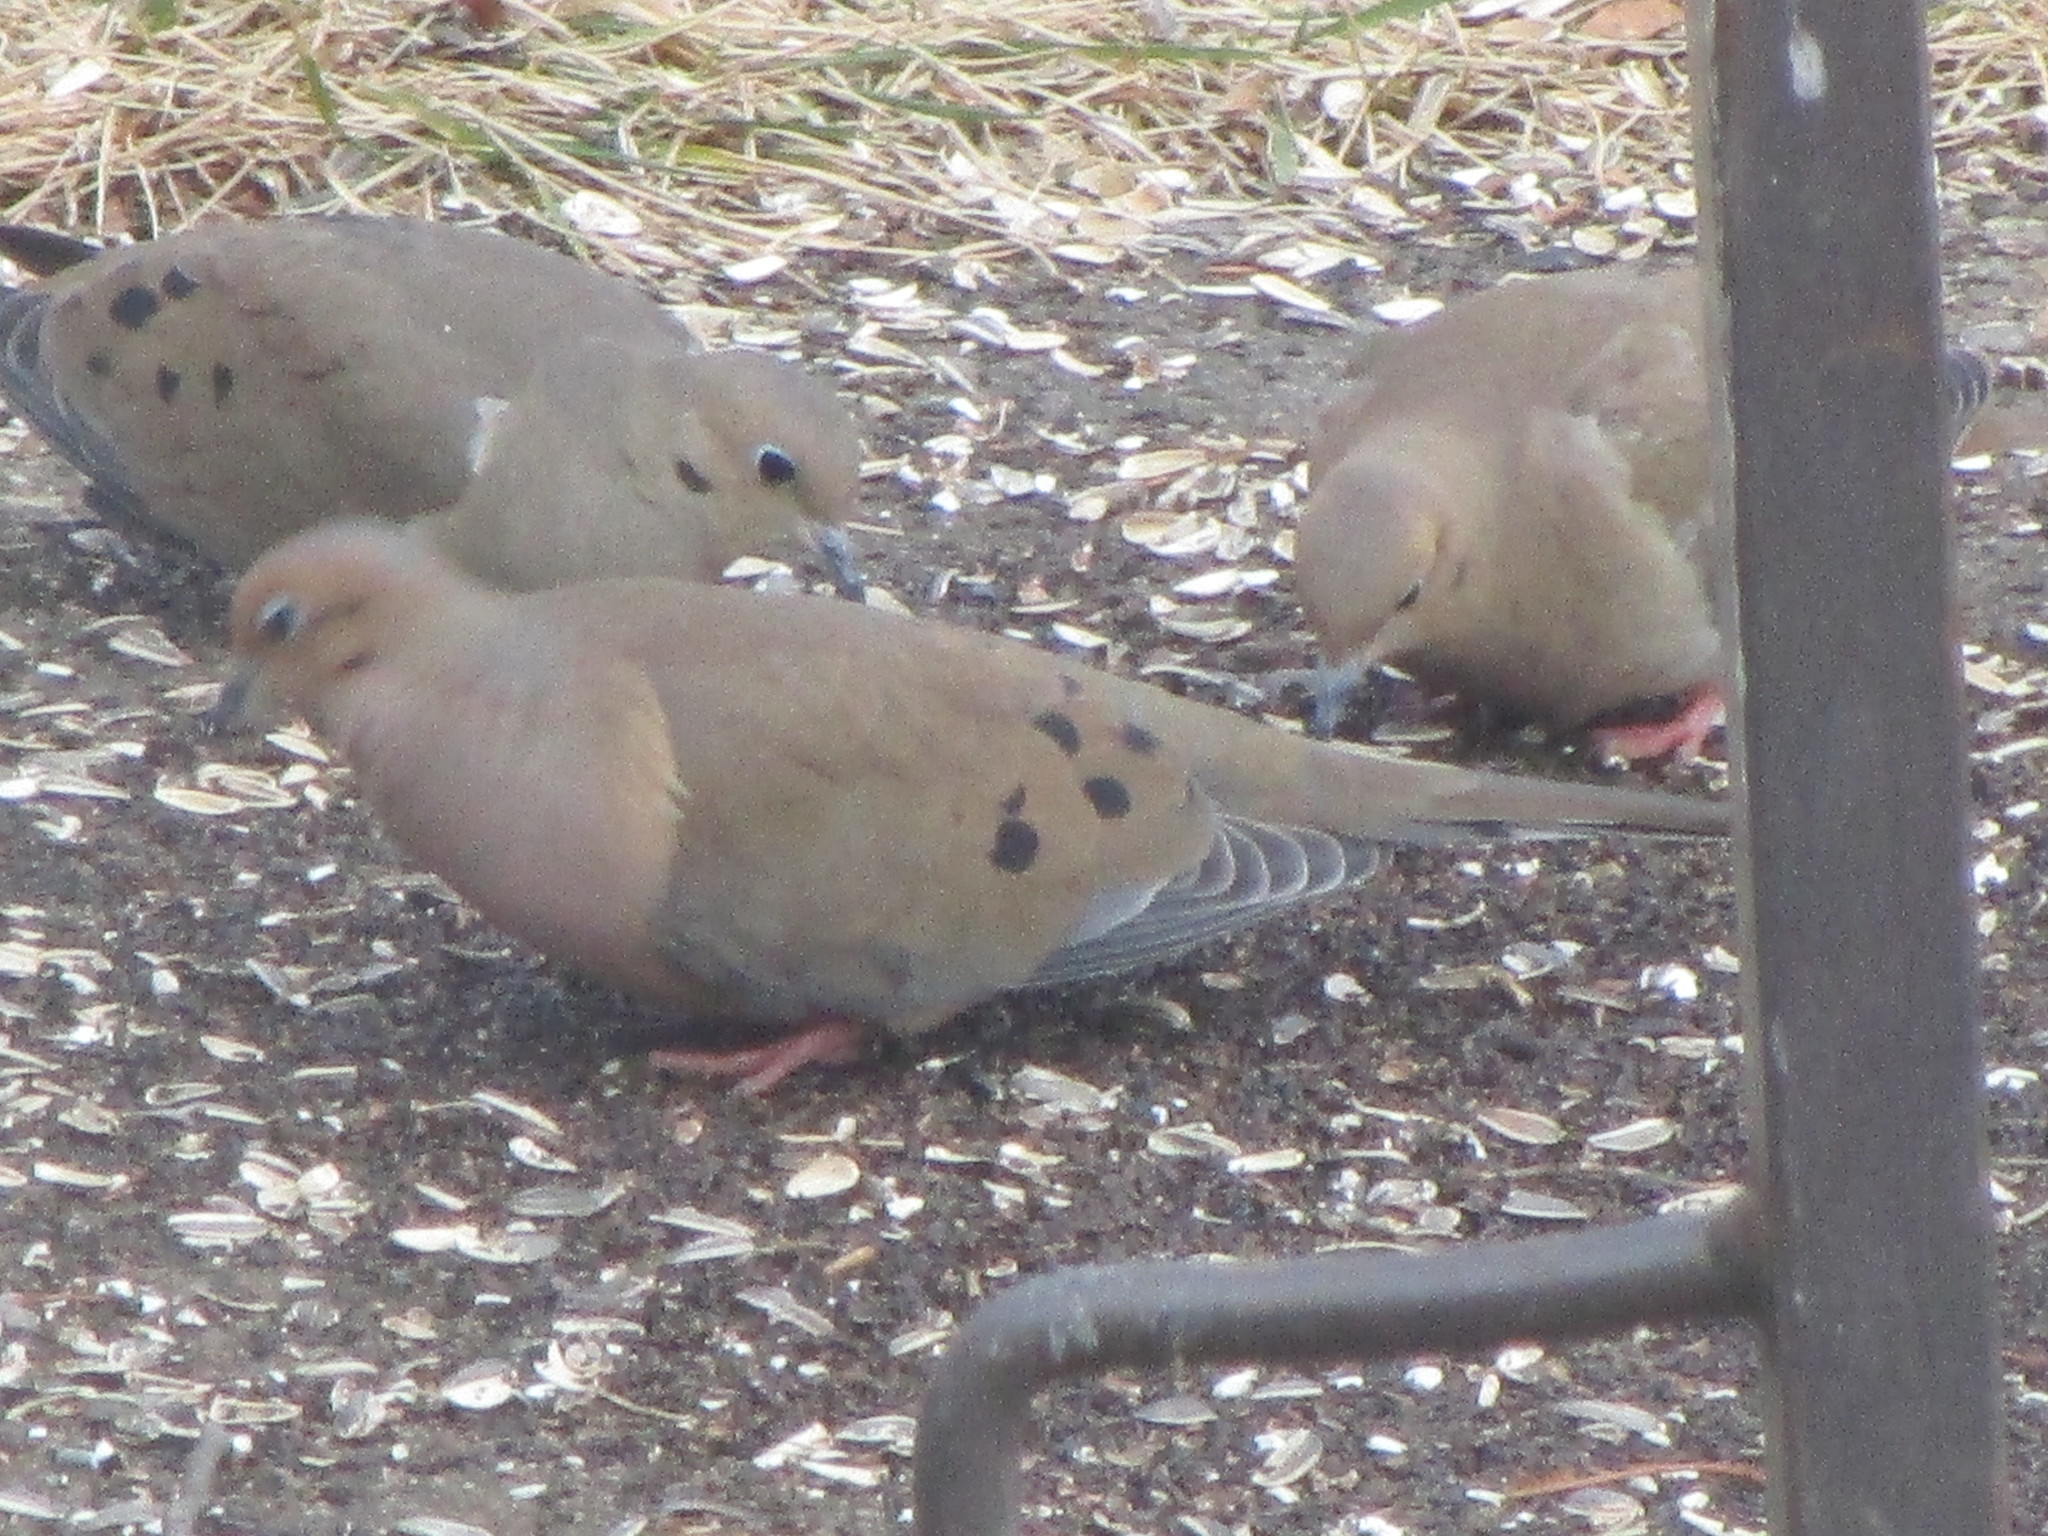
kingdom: Animalia
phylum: Chordata
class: Aves
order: Columbiformes
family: Columbidae
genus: Zenaida
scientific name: Zenaida macroura
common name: Mourning dove
